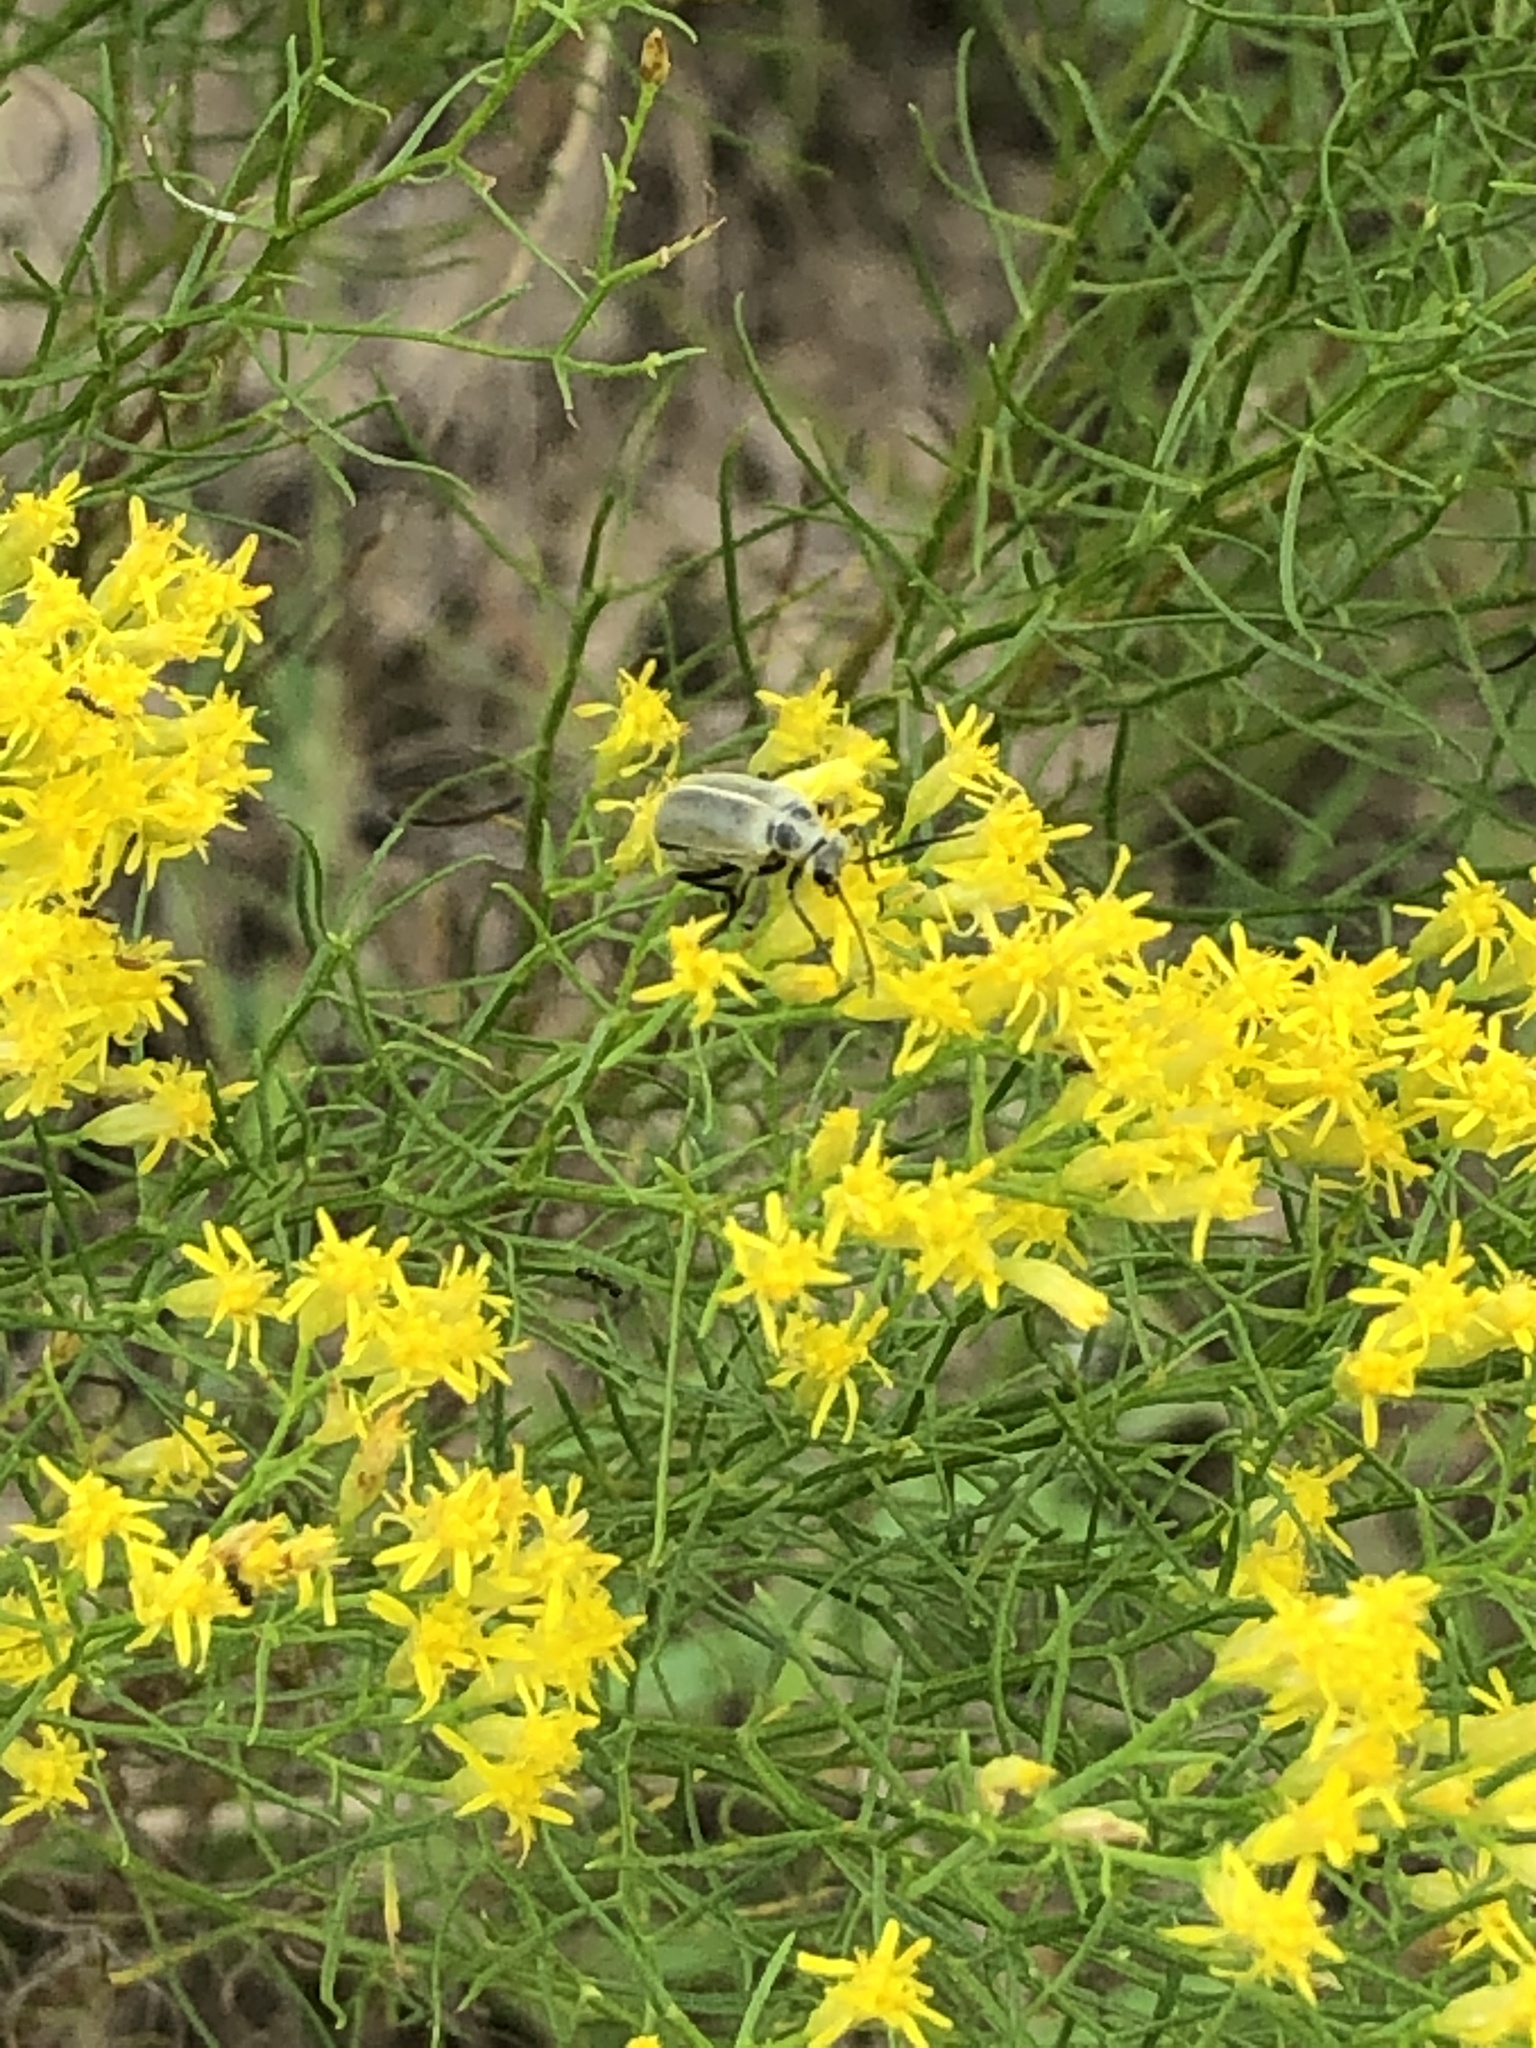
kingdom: Plantae
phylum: Tracheophyta
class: Magnoliopsida
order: Asterales
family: Asteraceae
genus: Euthamia
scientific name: Euthamia caroliniana
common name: Coastal plain goldentop
